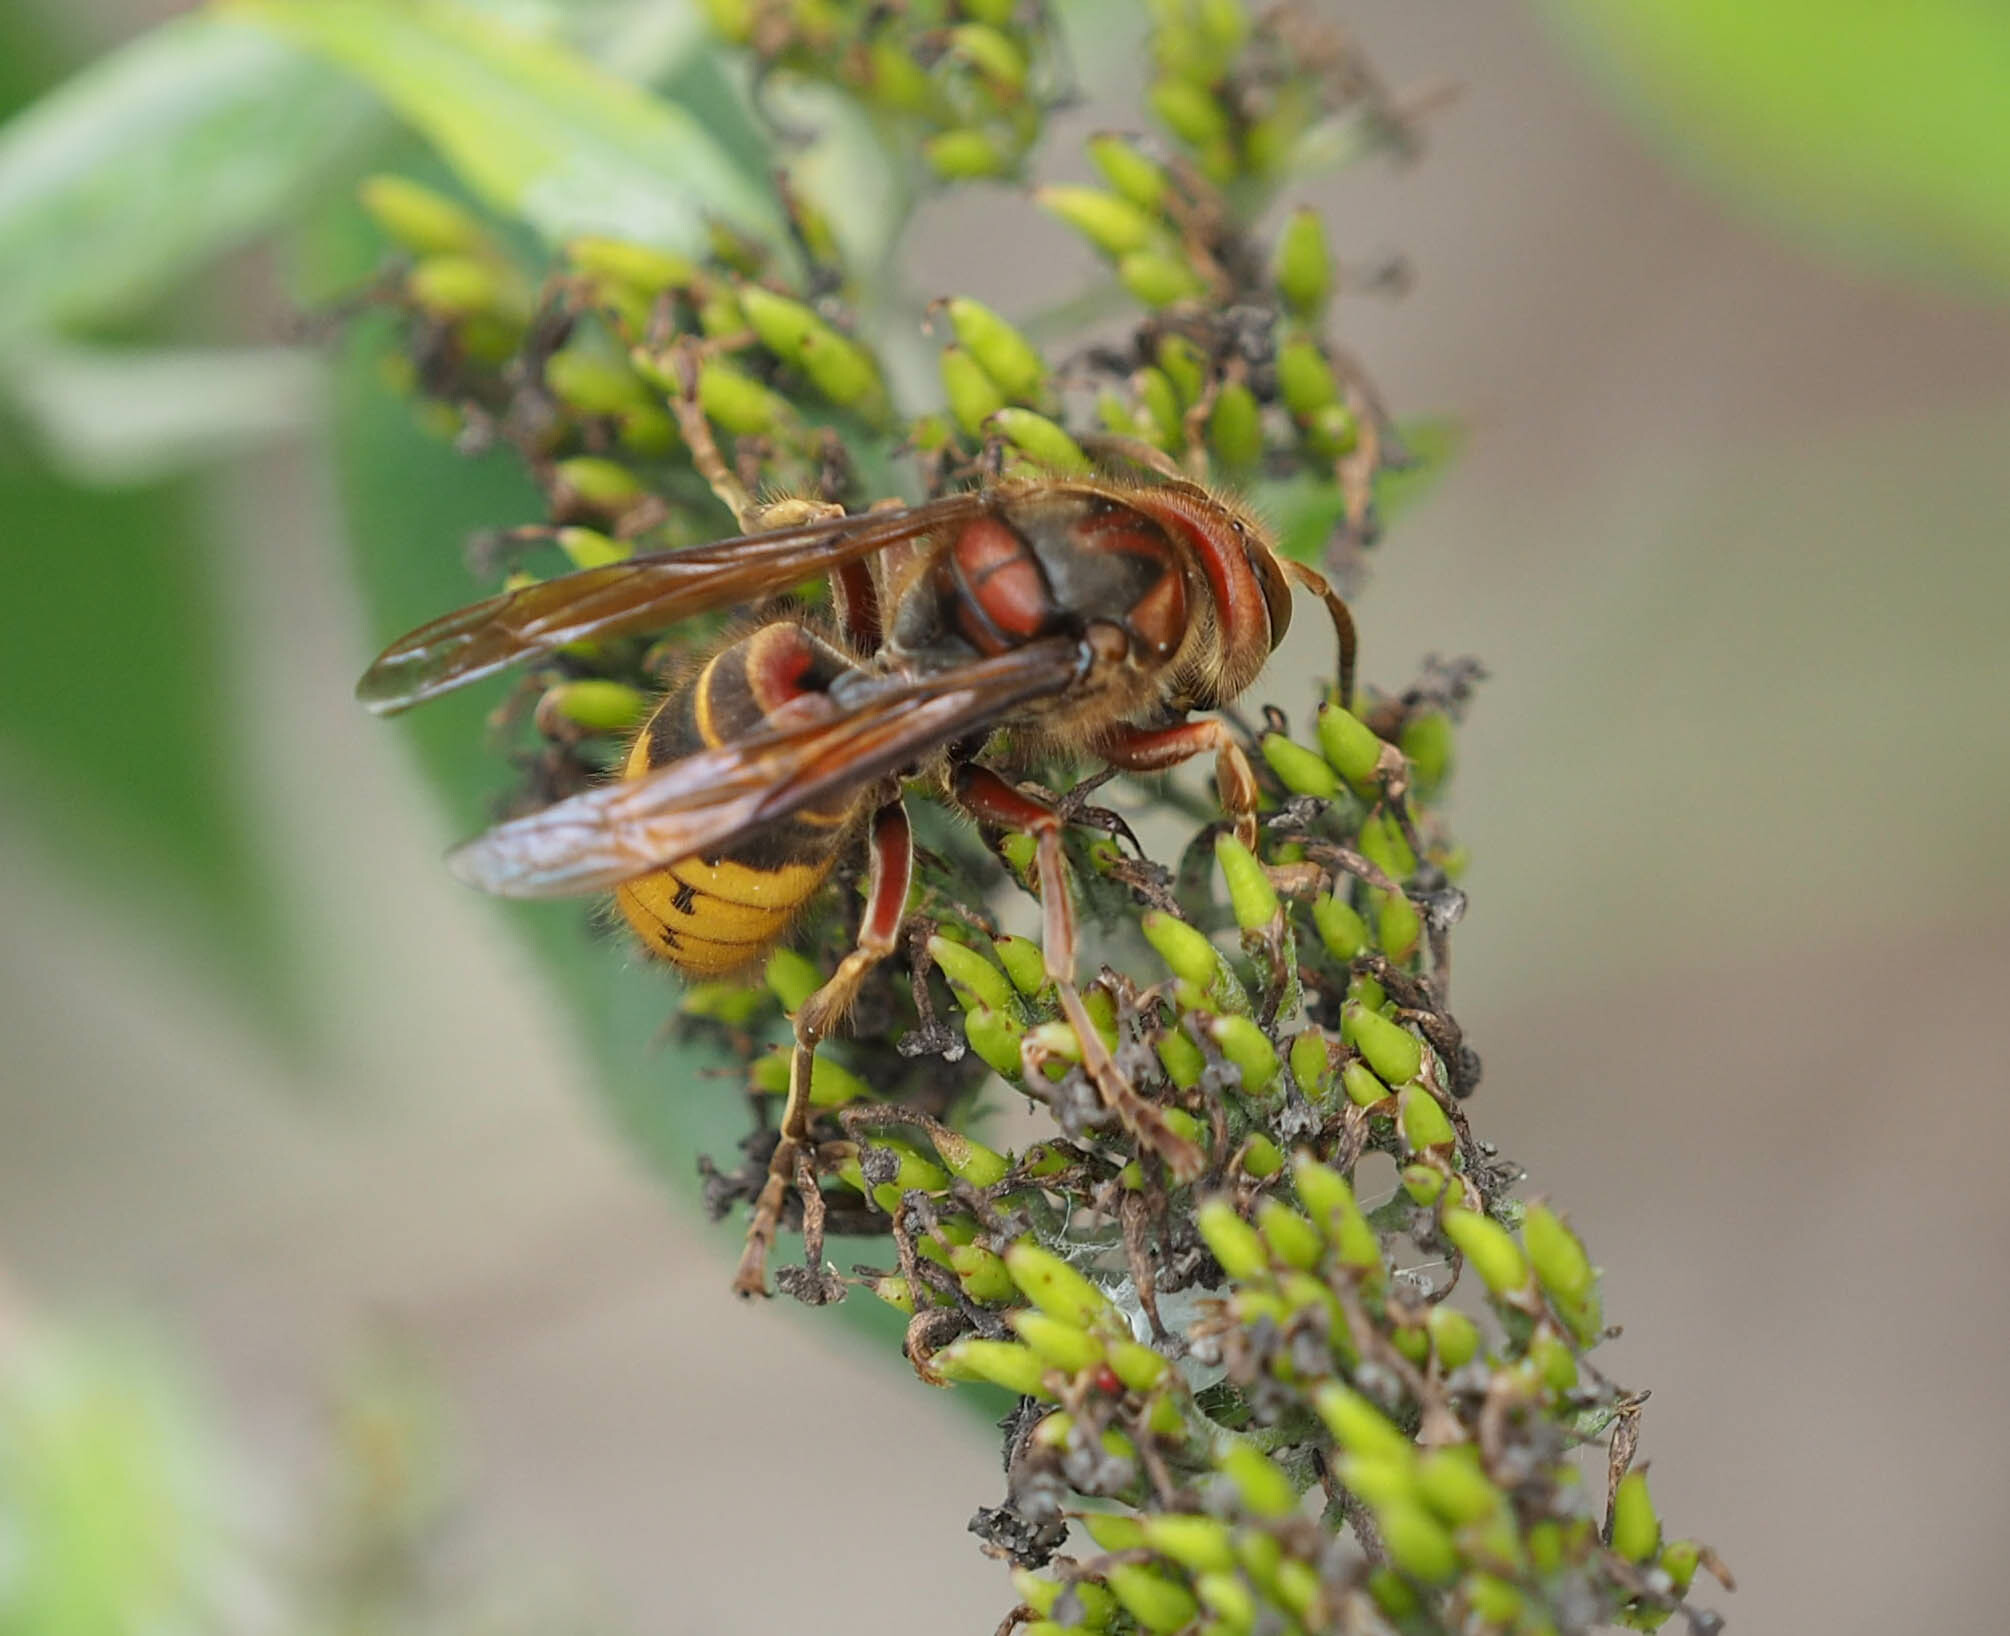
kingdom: Animalia
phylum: Arthropoda
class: Insecta
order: Hymenoptera
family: Vespidae
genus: Vespa
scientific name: Vespa crabro
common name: Hornet
